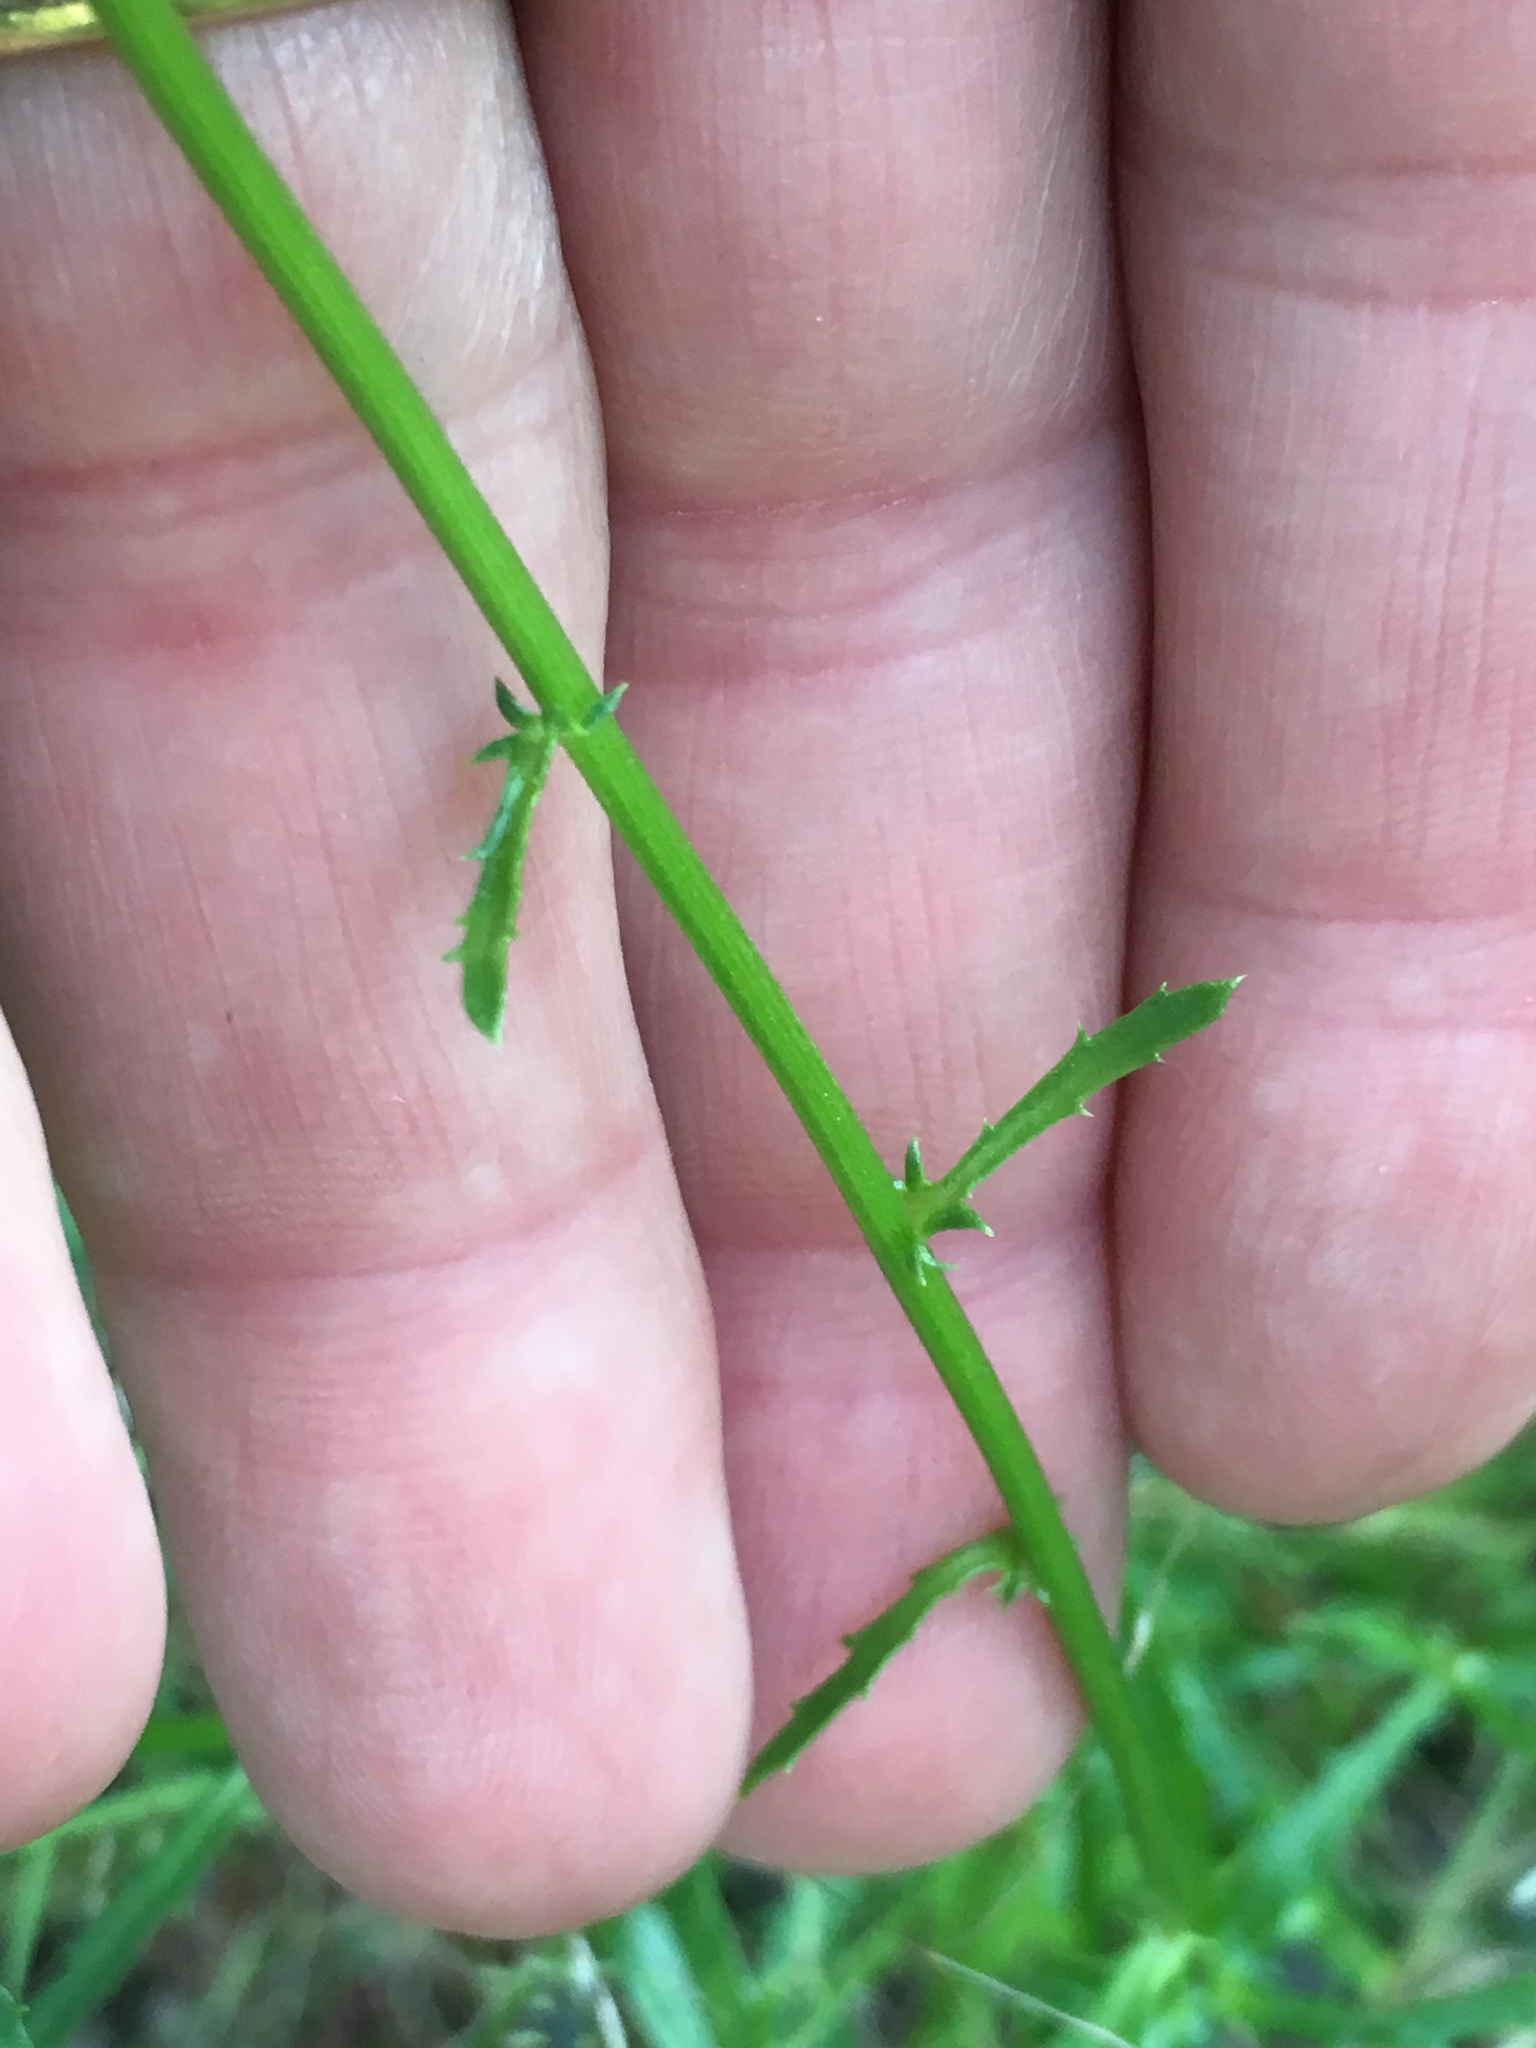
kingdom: Plantae
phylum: Tracheophyta
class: Magnoliopsida
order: Asterales
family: Asteraceae
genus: Leucanthemum
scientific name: Leucanthemum vulgare
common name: Oxeye daisy
